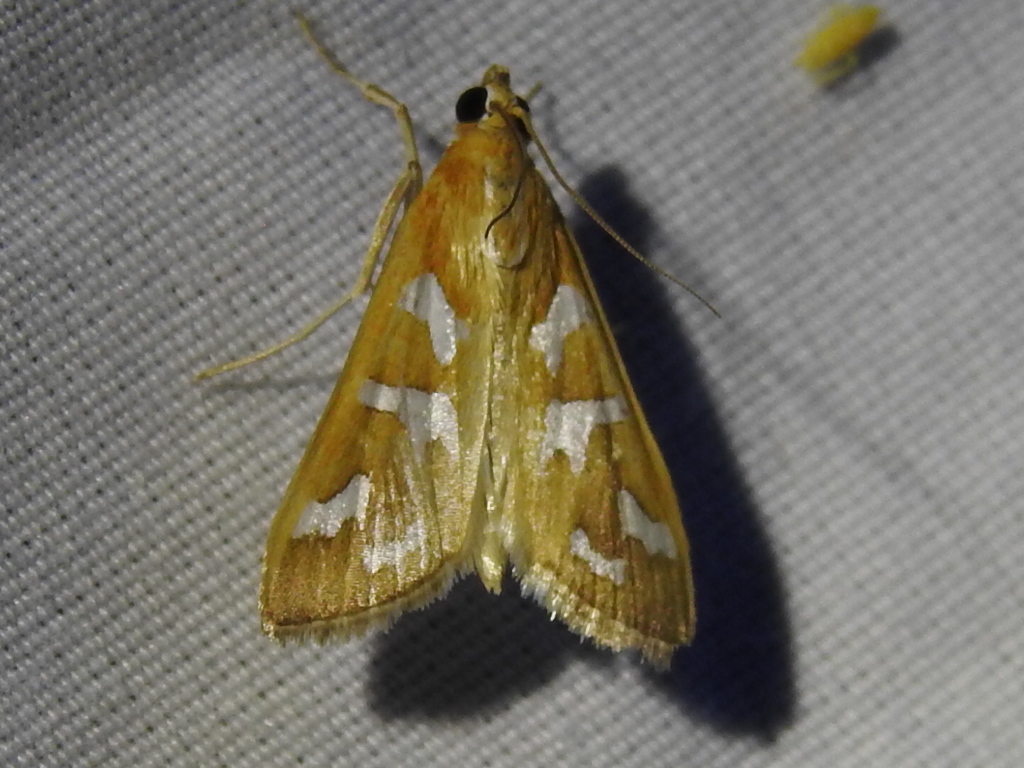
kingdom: Animalia
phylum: Arthropoda
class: Insecta
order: Lepidoptera
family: Crambidae
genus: Diastictis
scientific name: Diastictis fracturalis
